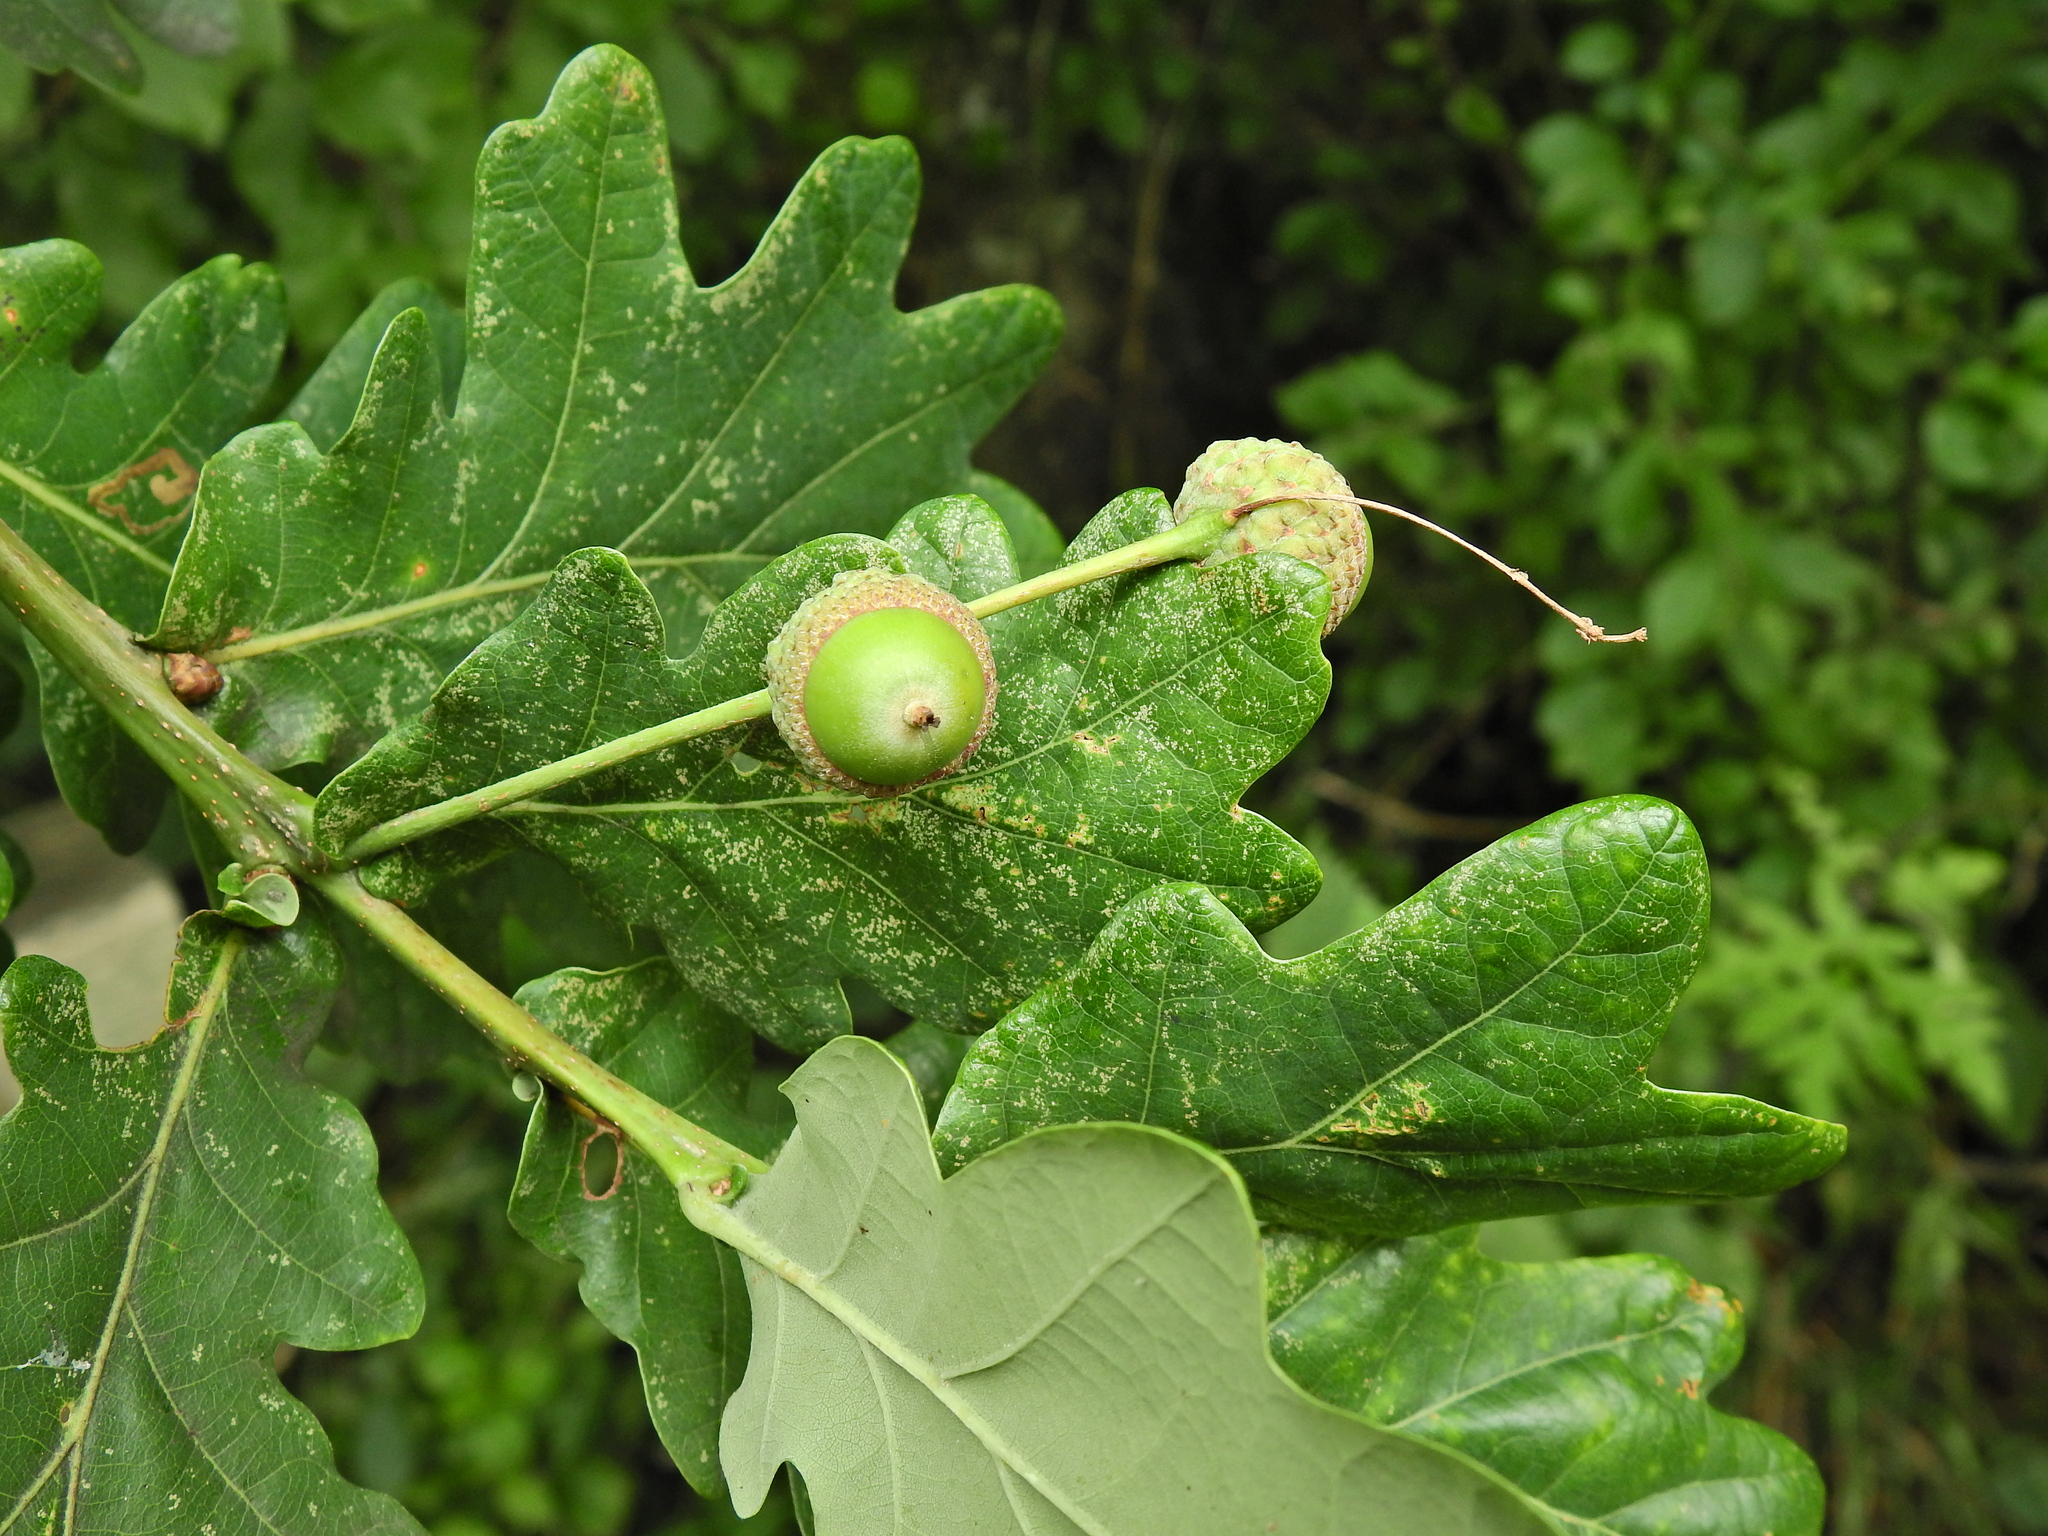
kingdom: Plantae
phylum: Tracheophyta
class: Magnoliopsida
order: Fagales
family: Fagaceae
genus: Quercus
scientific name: Quercus robur
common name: Pedunculate oak
